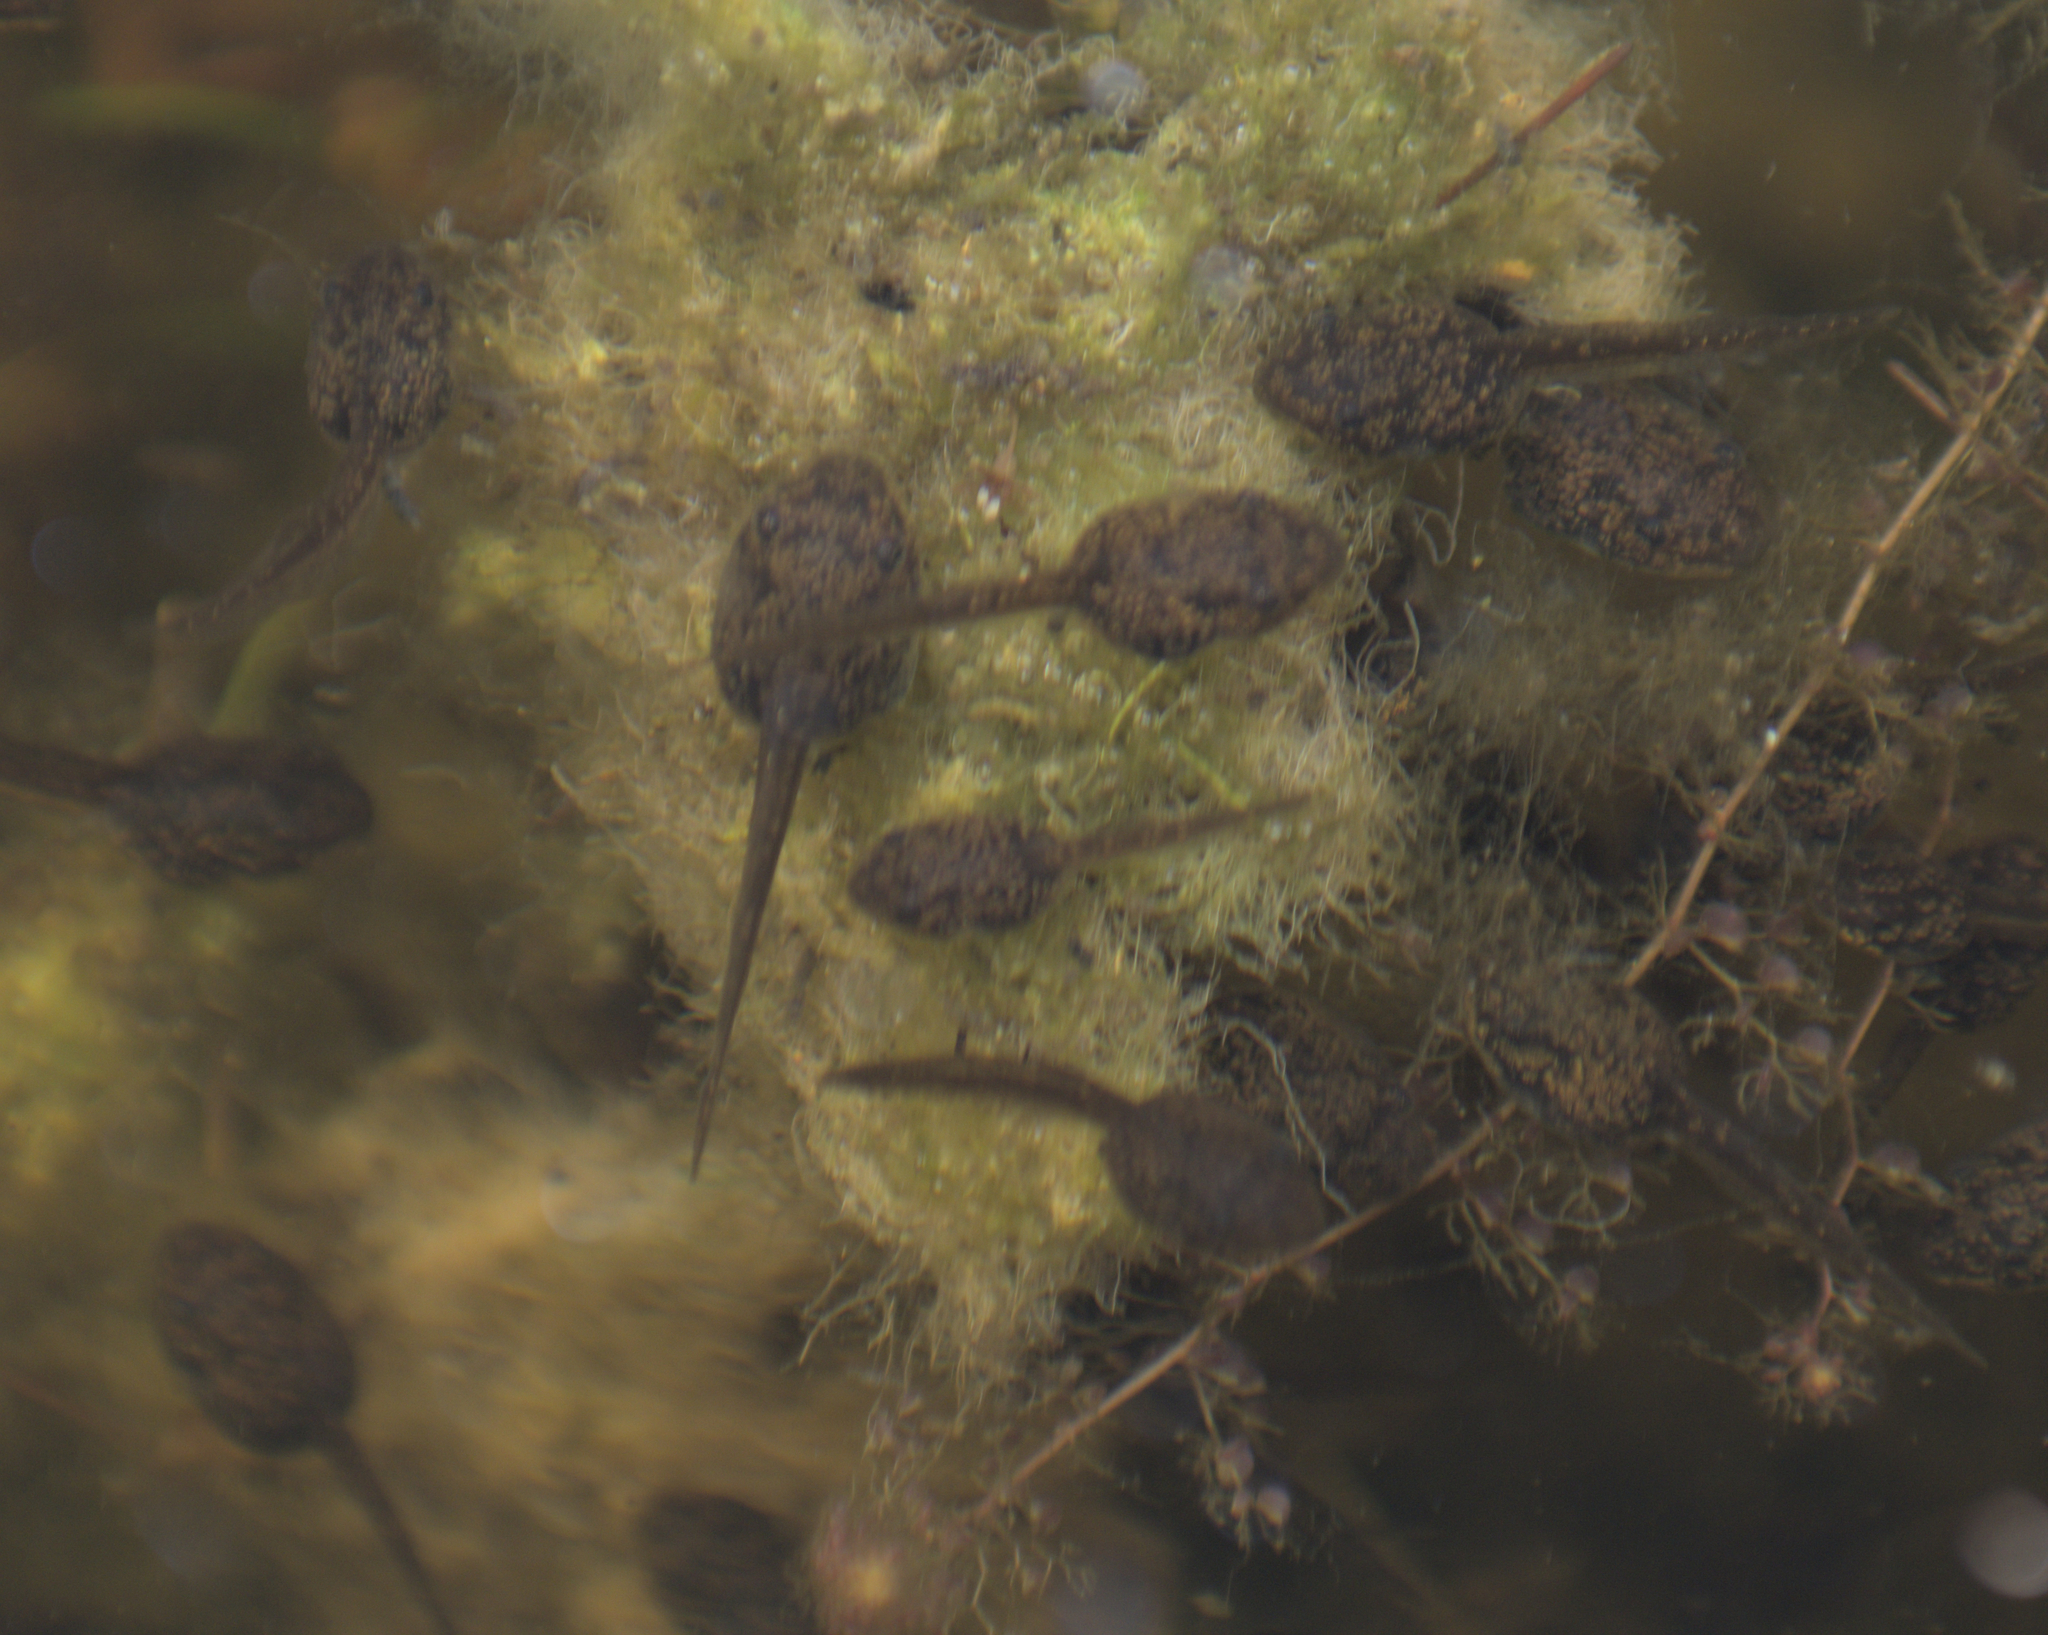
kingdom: Animalia
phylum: Chordata
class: Amphibia
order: Anura
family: Ranidae
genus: Lithobates
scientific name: Lithobates sylvaticus
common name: Wood frog
